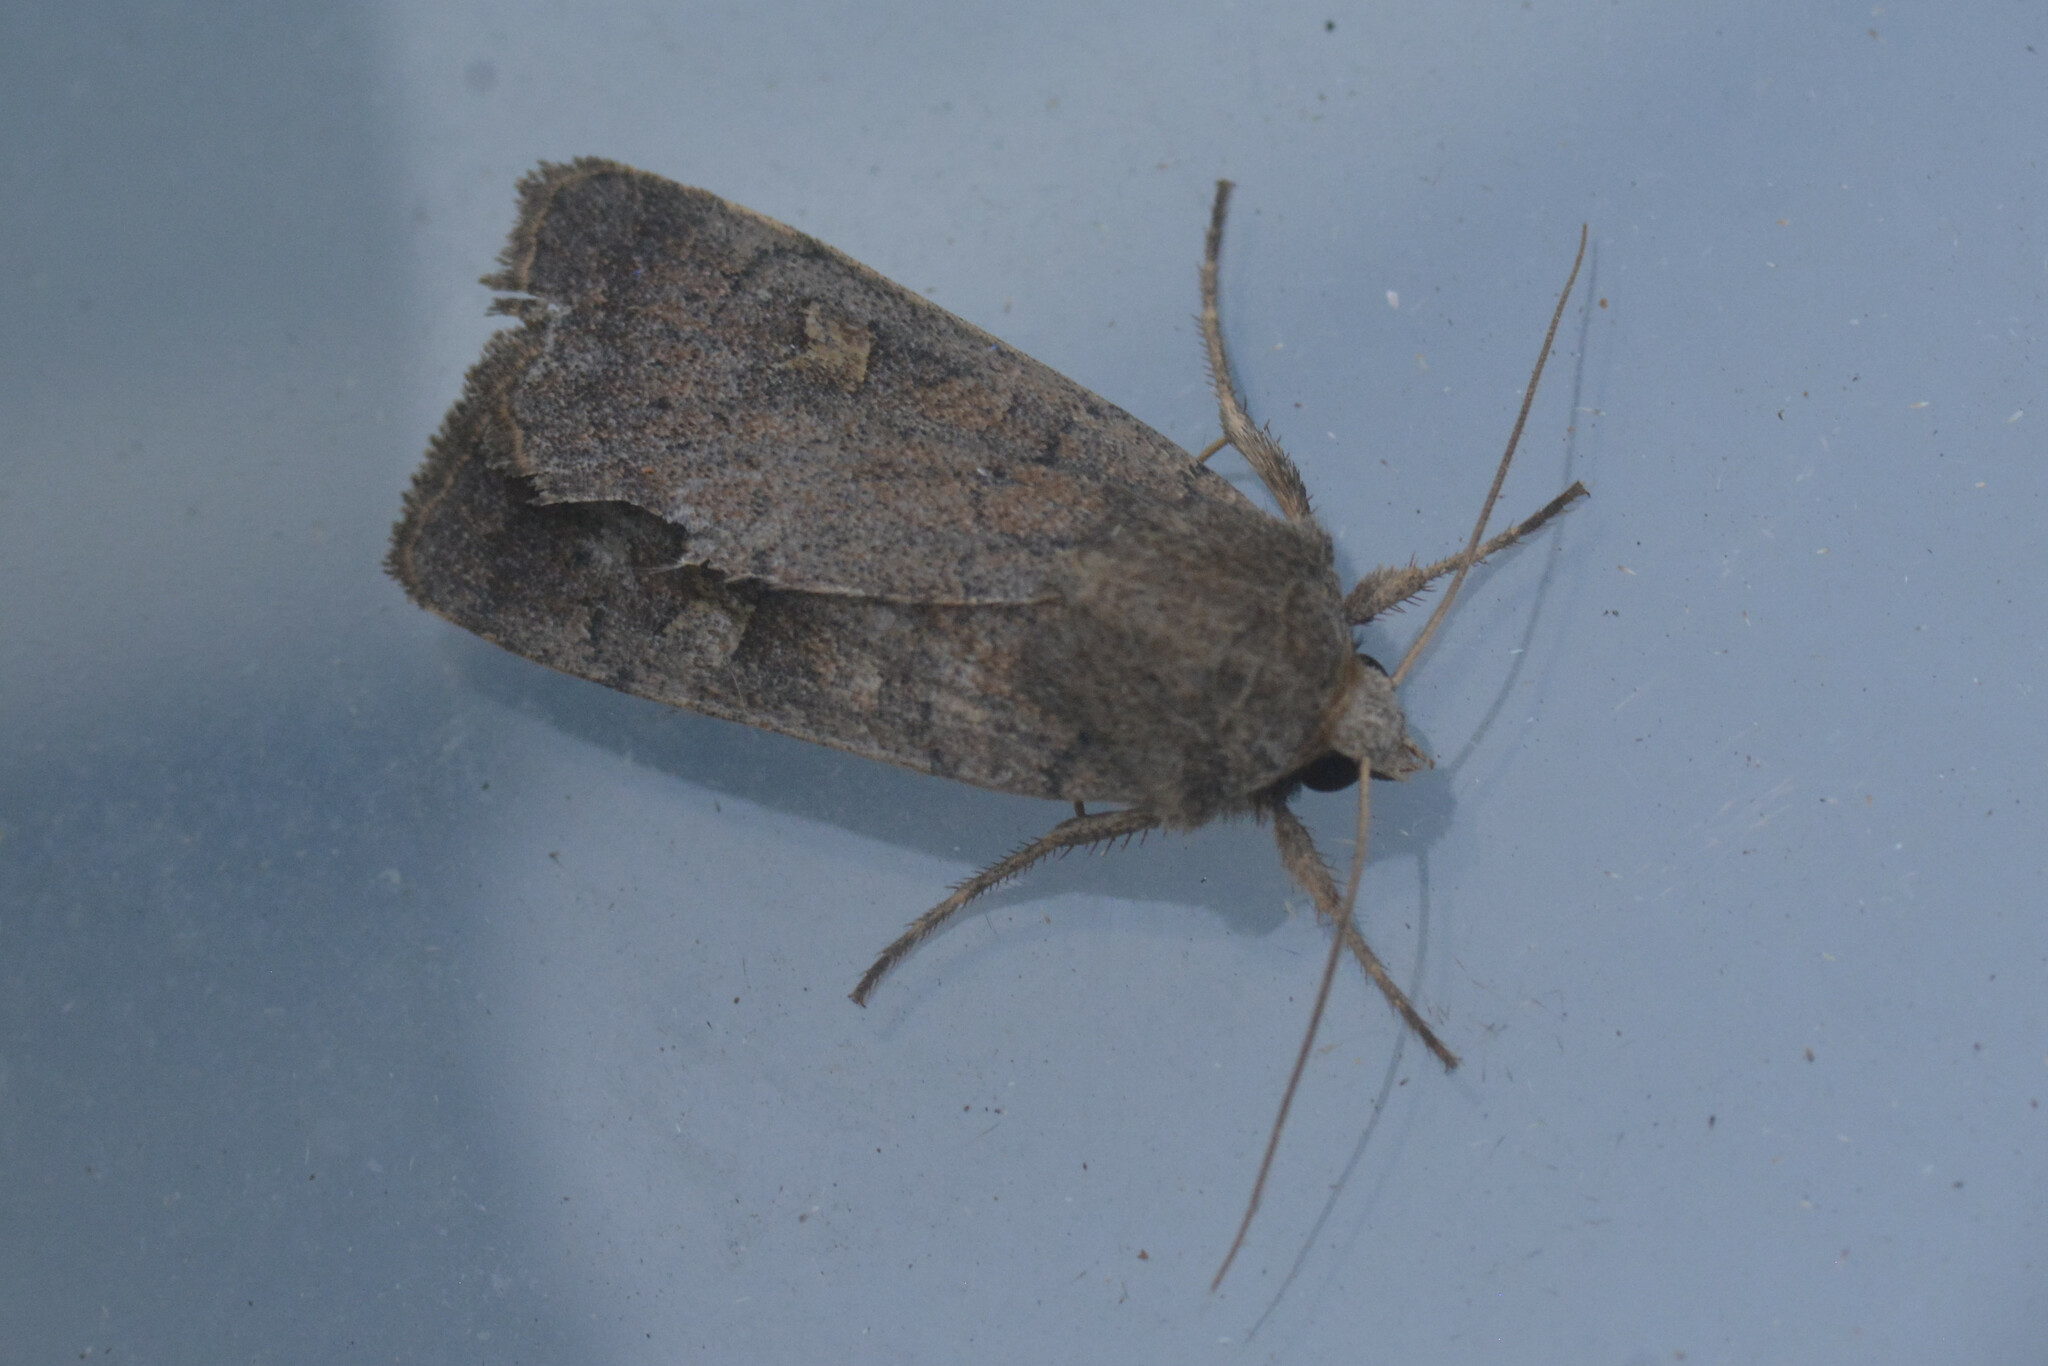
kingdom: Animalia
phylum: Arthropoda
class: Insecta
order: Lepidoptera
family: Noctuidae
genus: Xestia
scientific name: Xestia xanthographa
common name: Square-spot rustic
